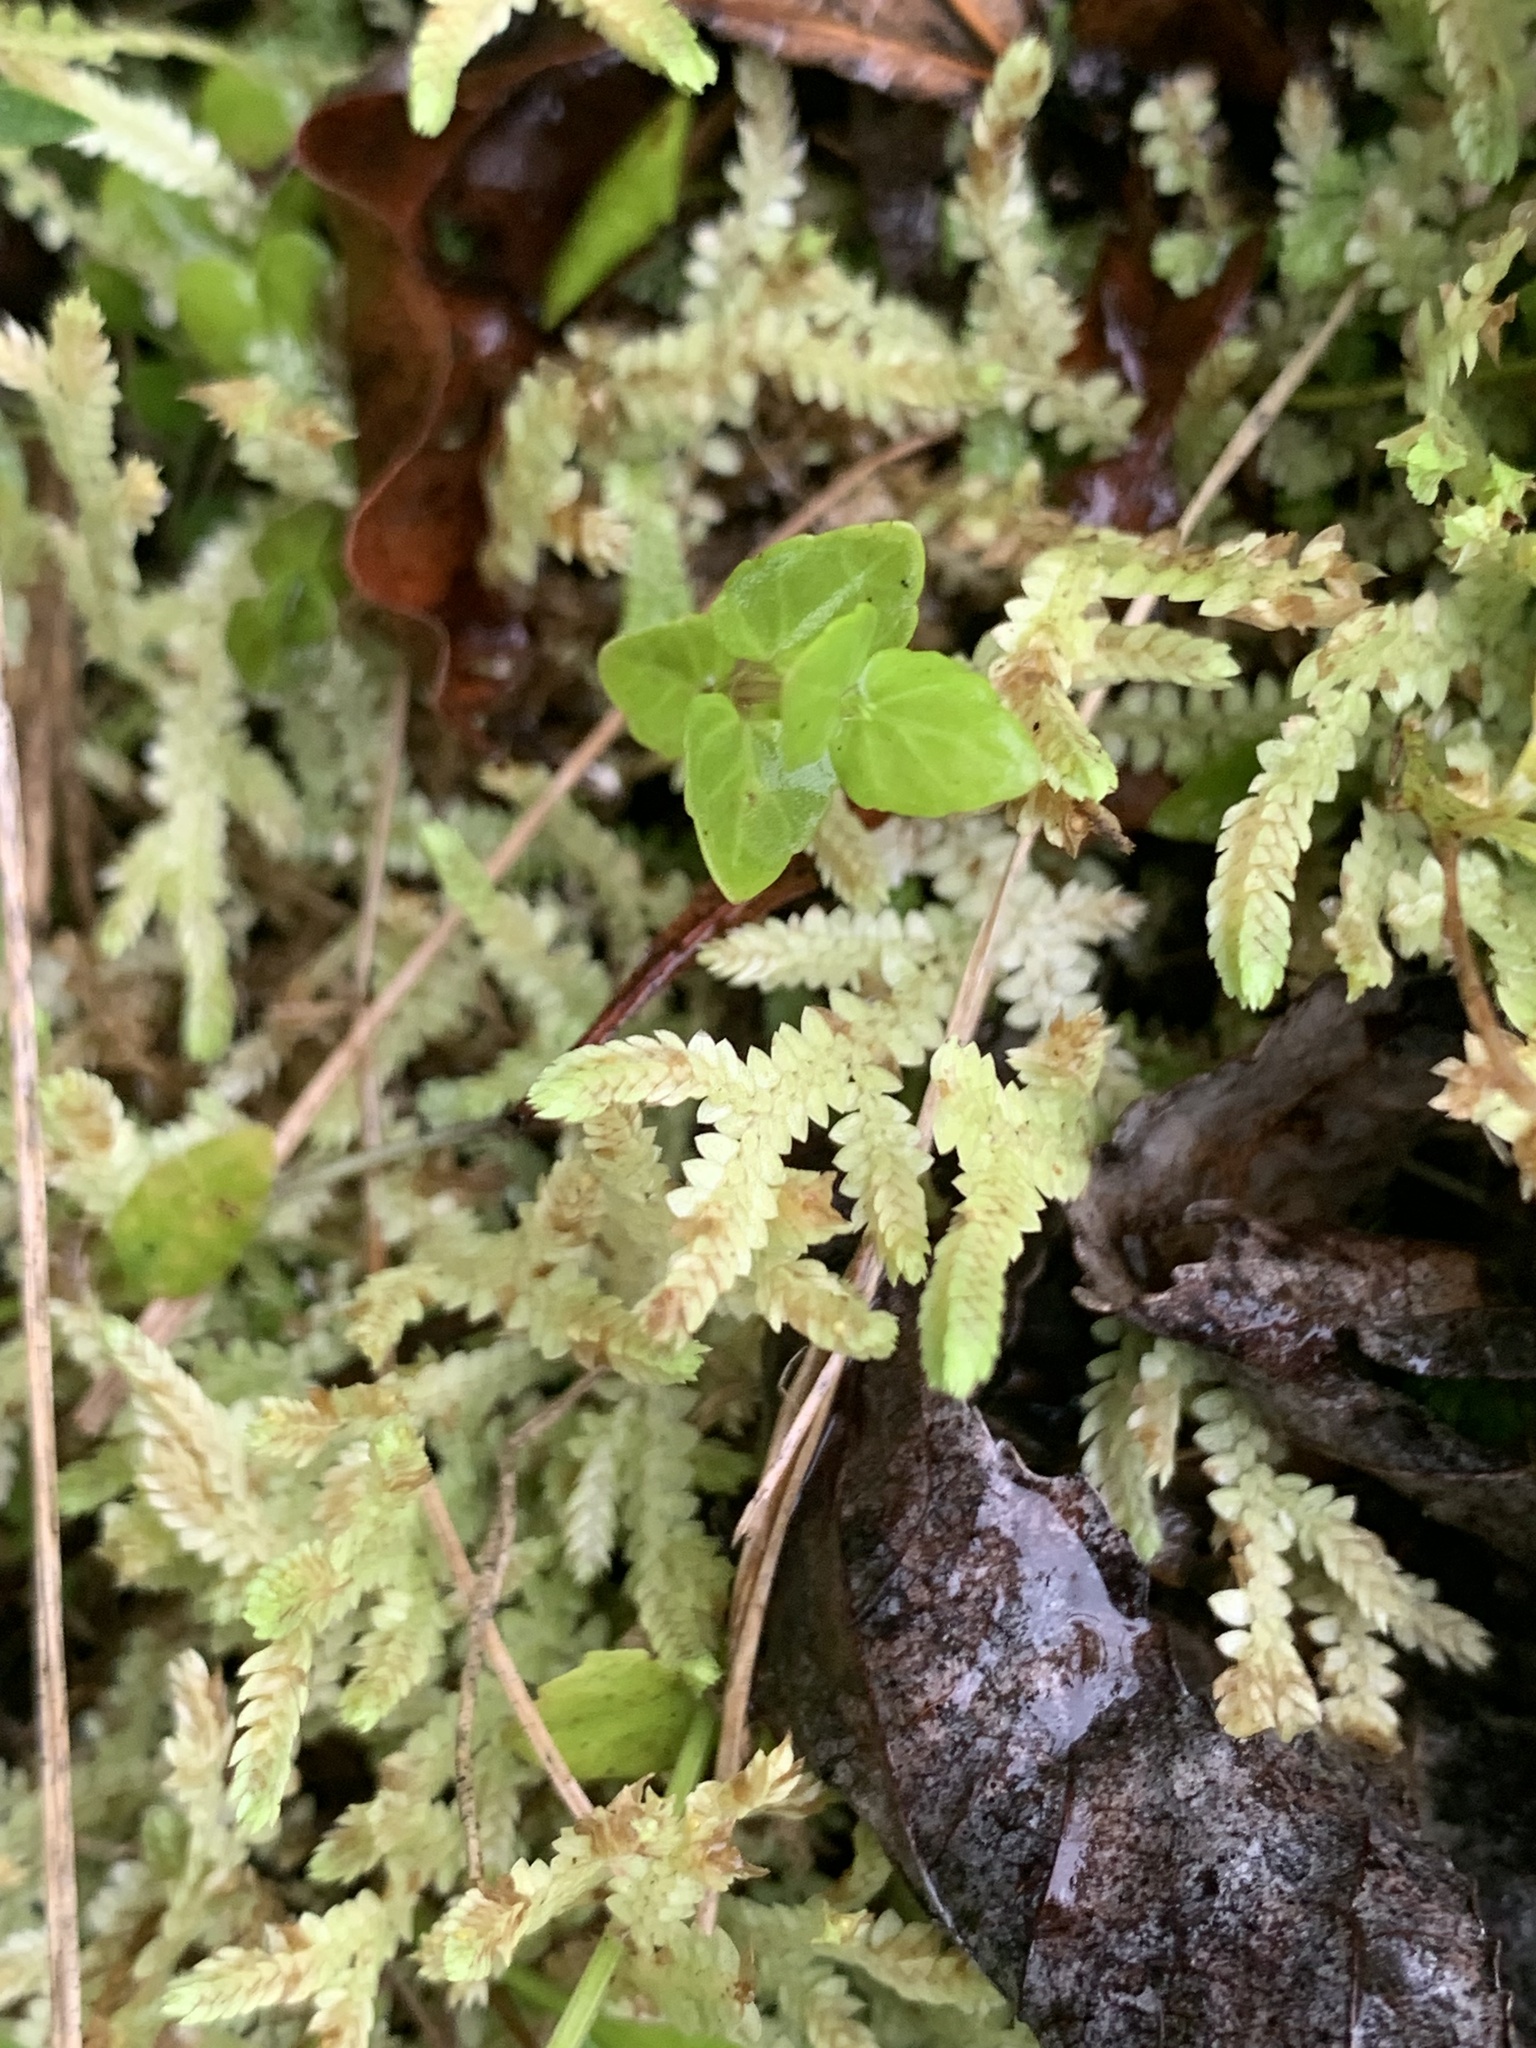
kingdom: Plantae
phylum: Tracheophyta
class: Lycopodiopsida
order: Selaginellales
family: Selaginellaceae
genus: Selaginella
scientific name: Selaginella apoda
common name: Creeping spikemoss
